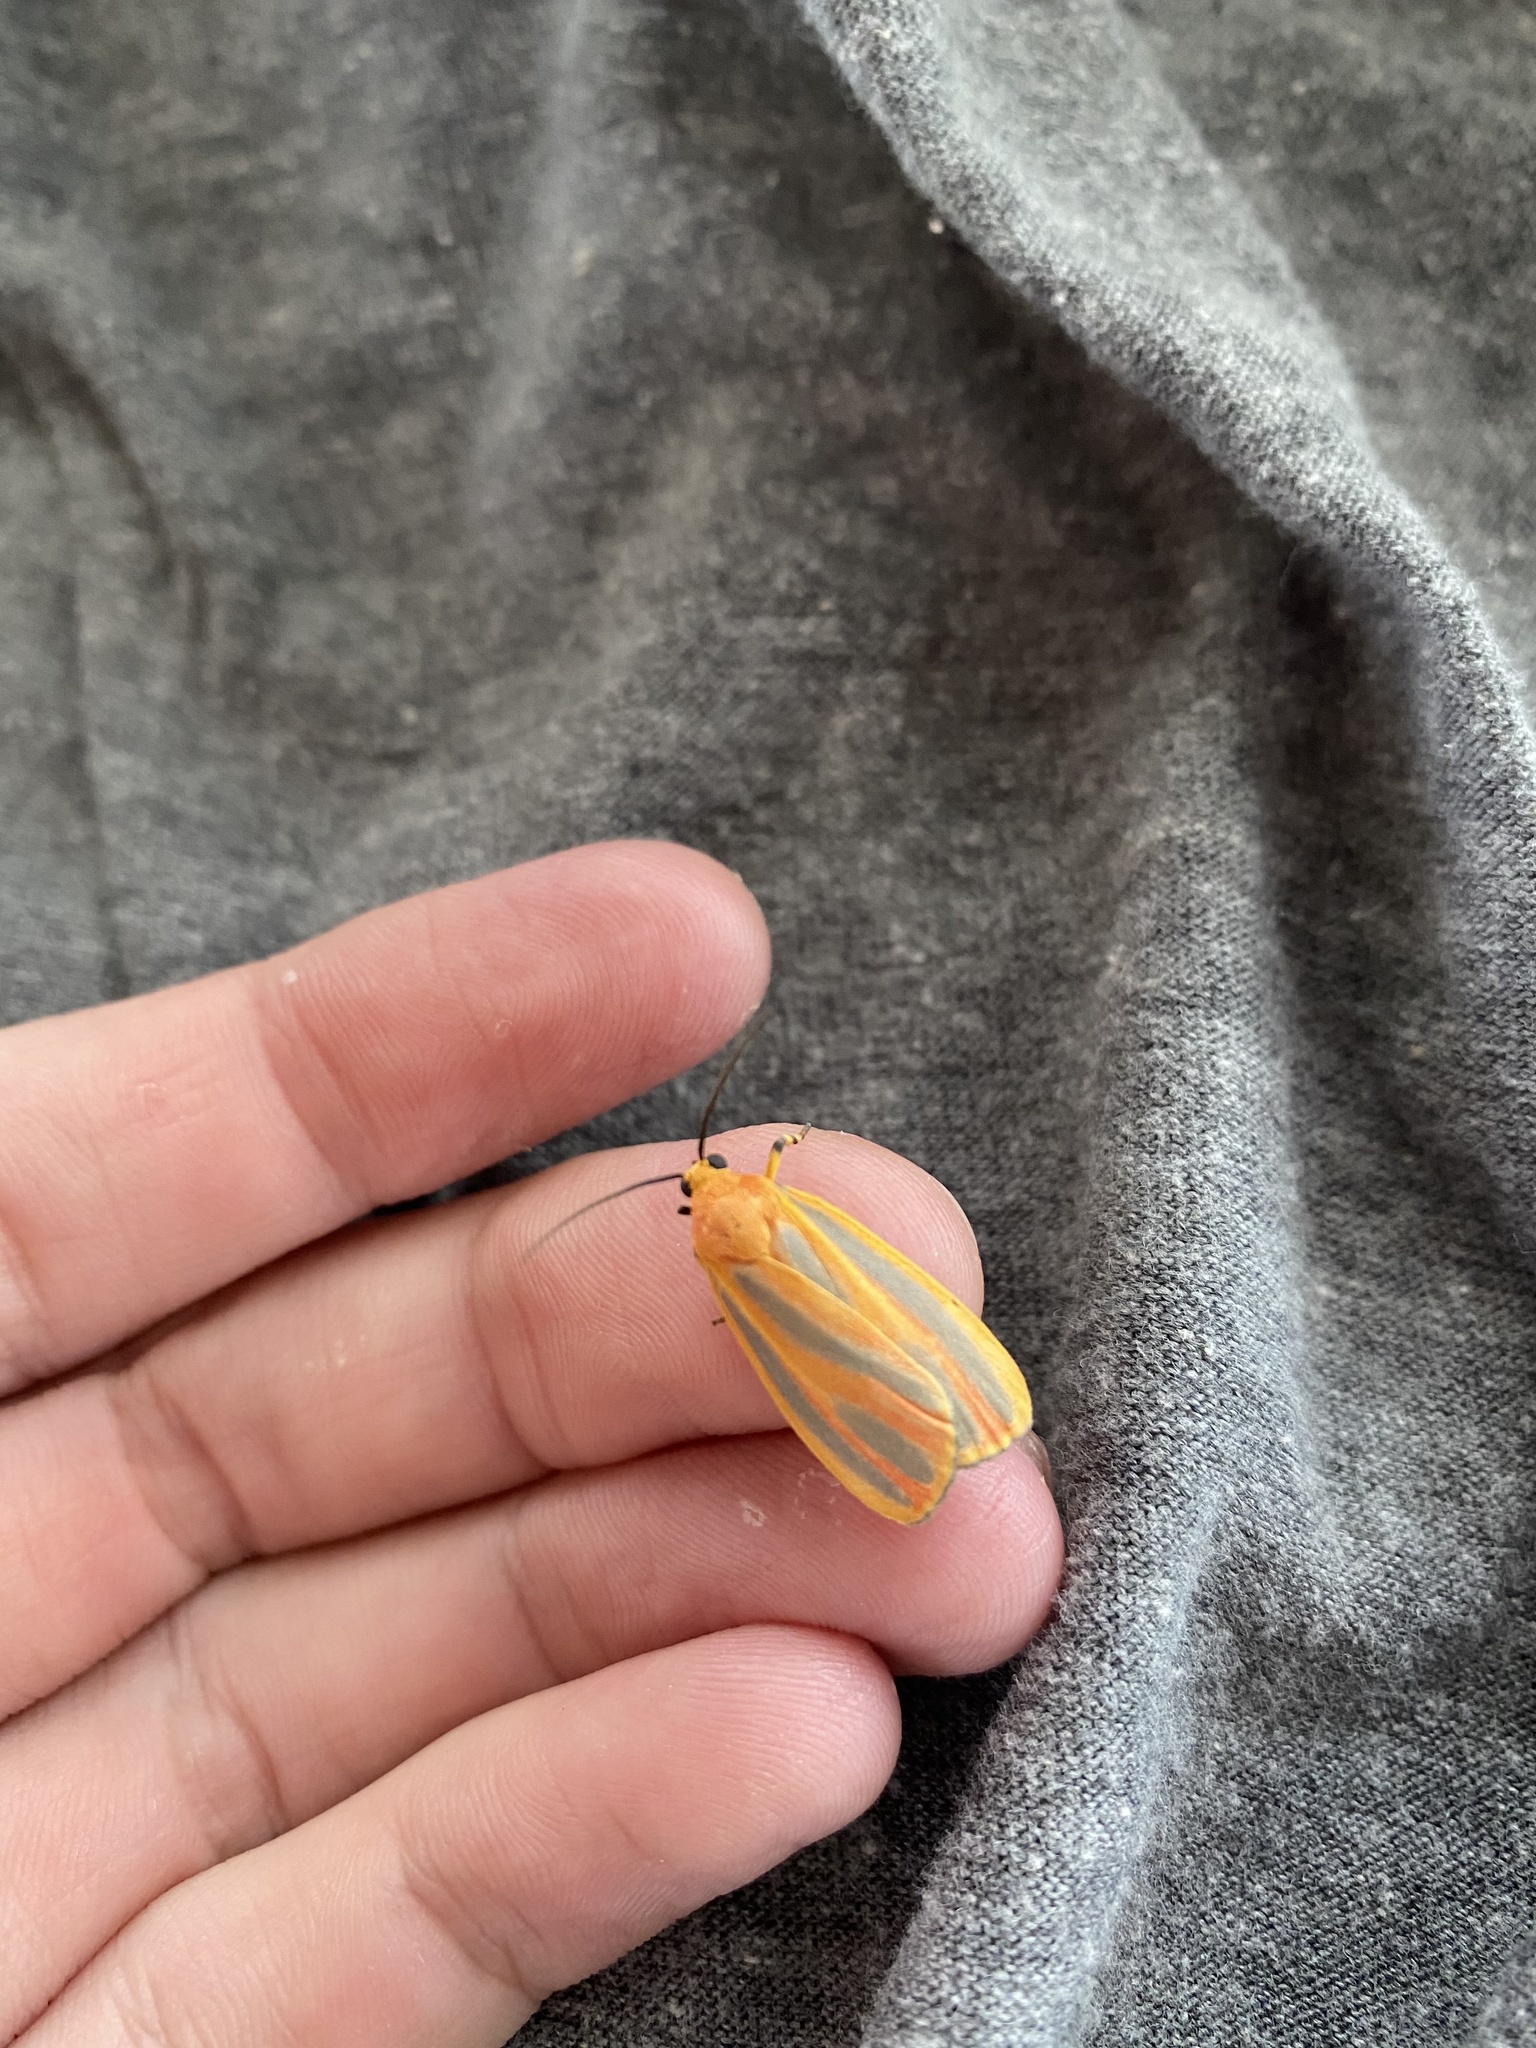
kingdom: Animalia
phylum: Arthropoda
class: Insecta
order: Lepidoptera
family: Erebidae
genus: Hypoprepia
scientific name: Hypoprepia fucosa
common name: Painted lichen moth
